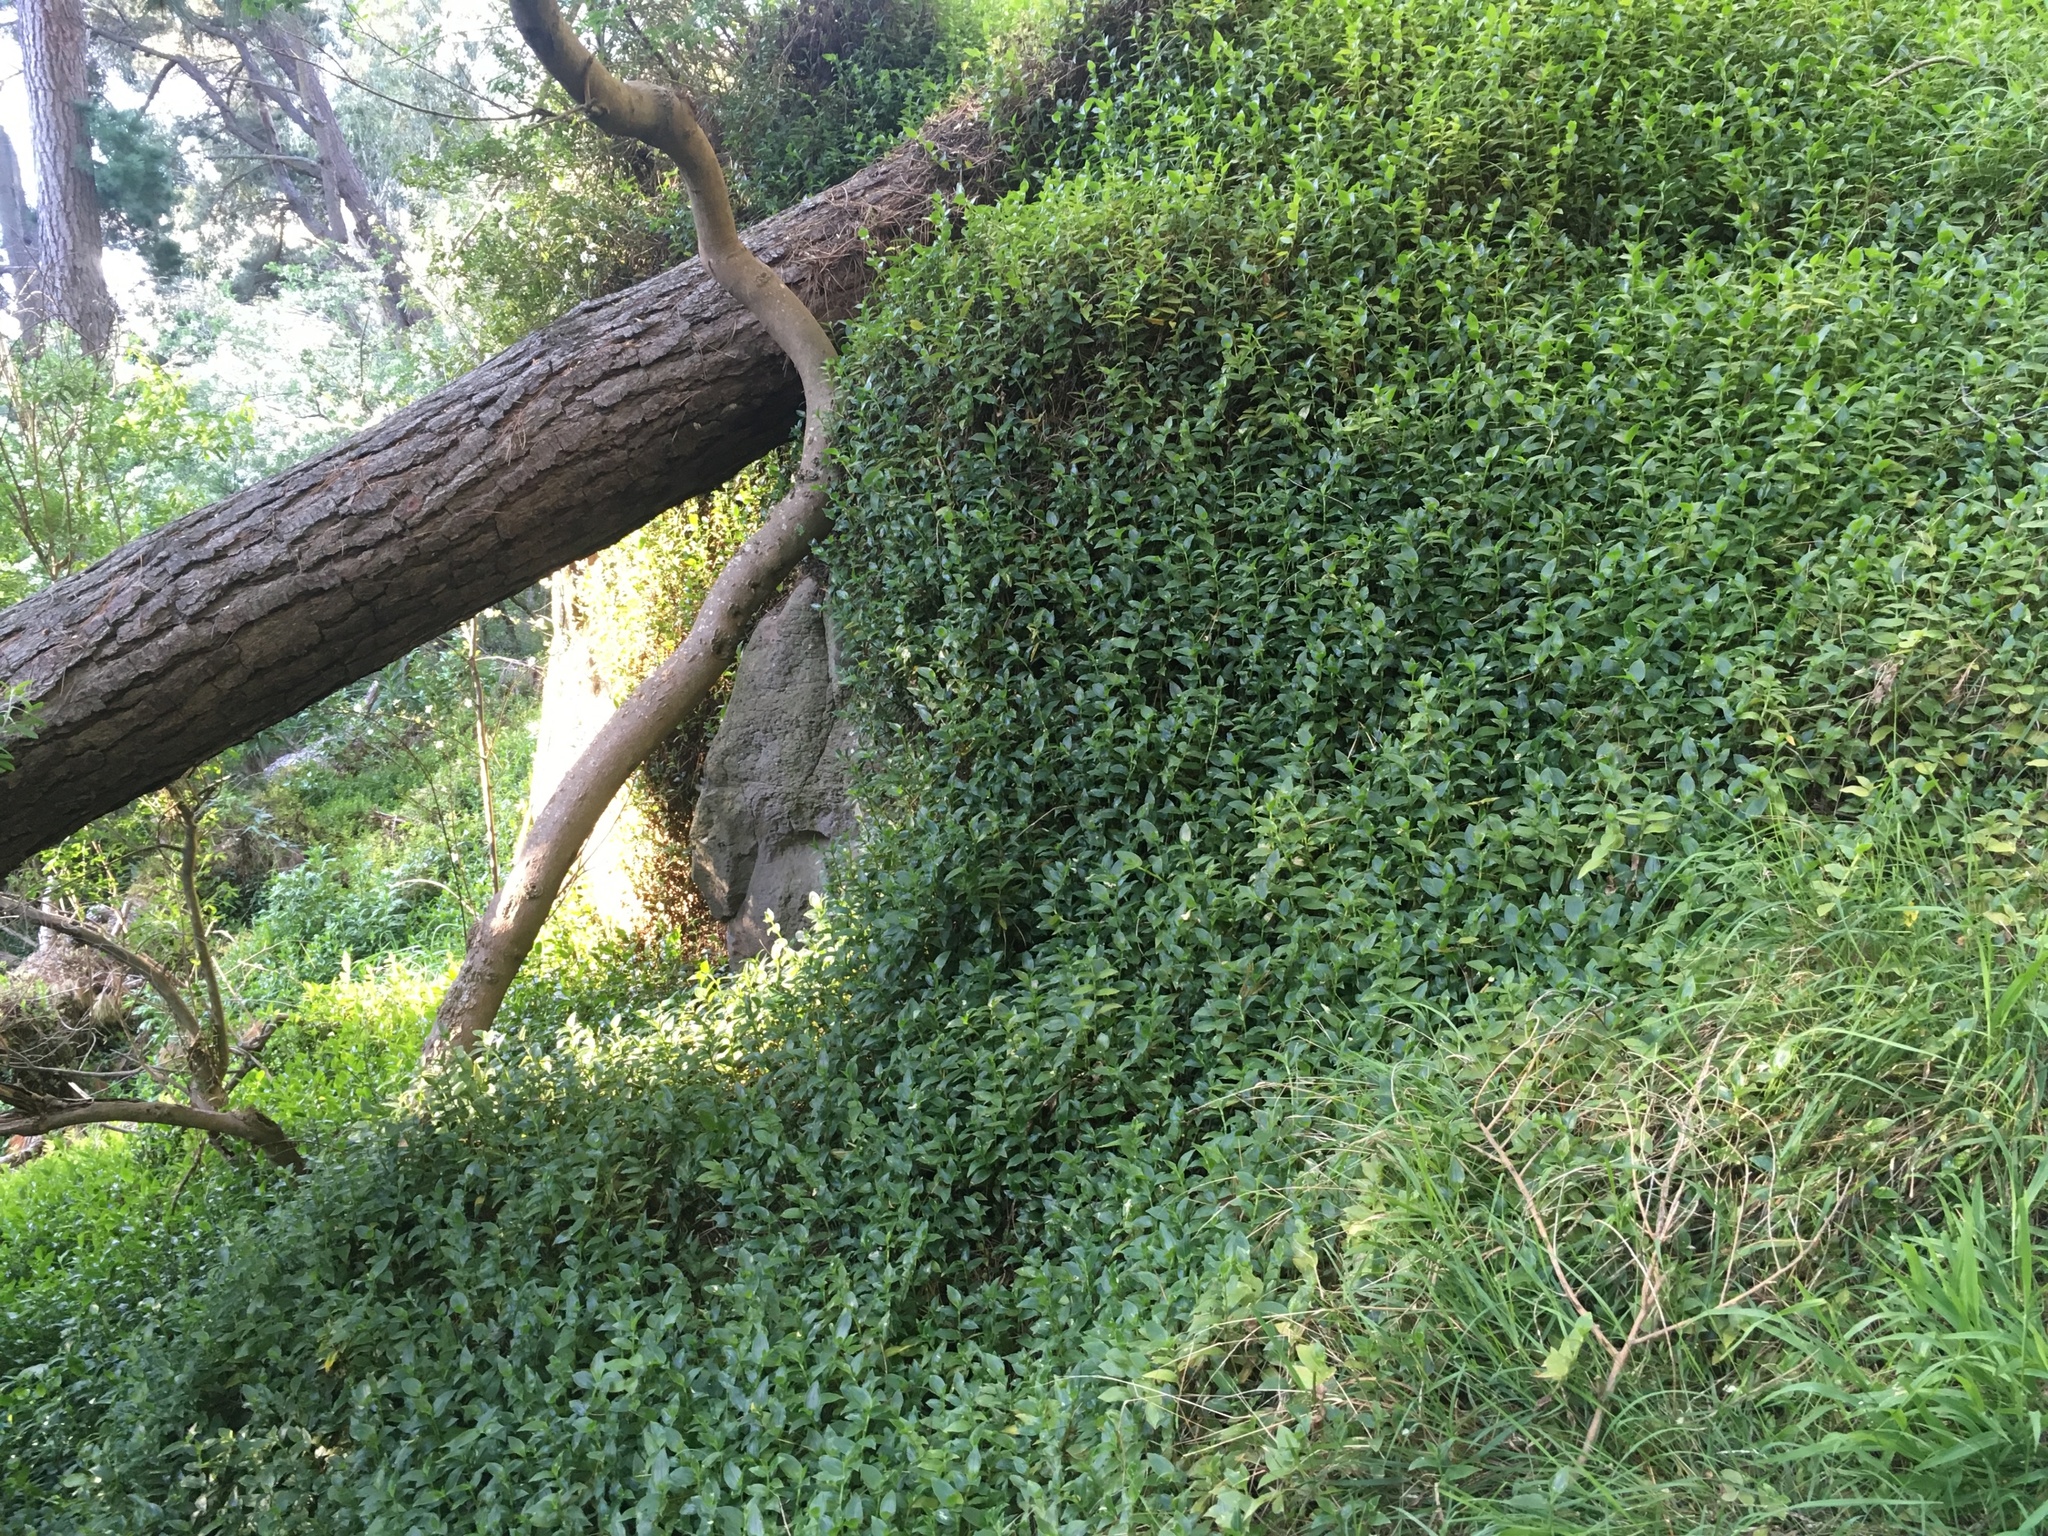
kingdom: Plantae
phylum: Tracheophyta
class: Liliopsida
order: Commelinales
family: Commelinaceae
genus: Tradescantia
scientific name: Tradescantia fluminensis
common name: Wandering-jew
